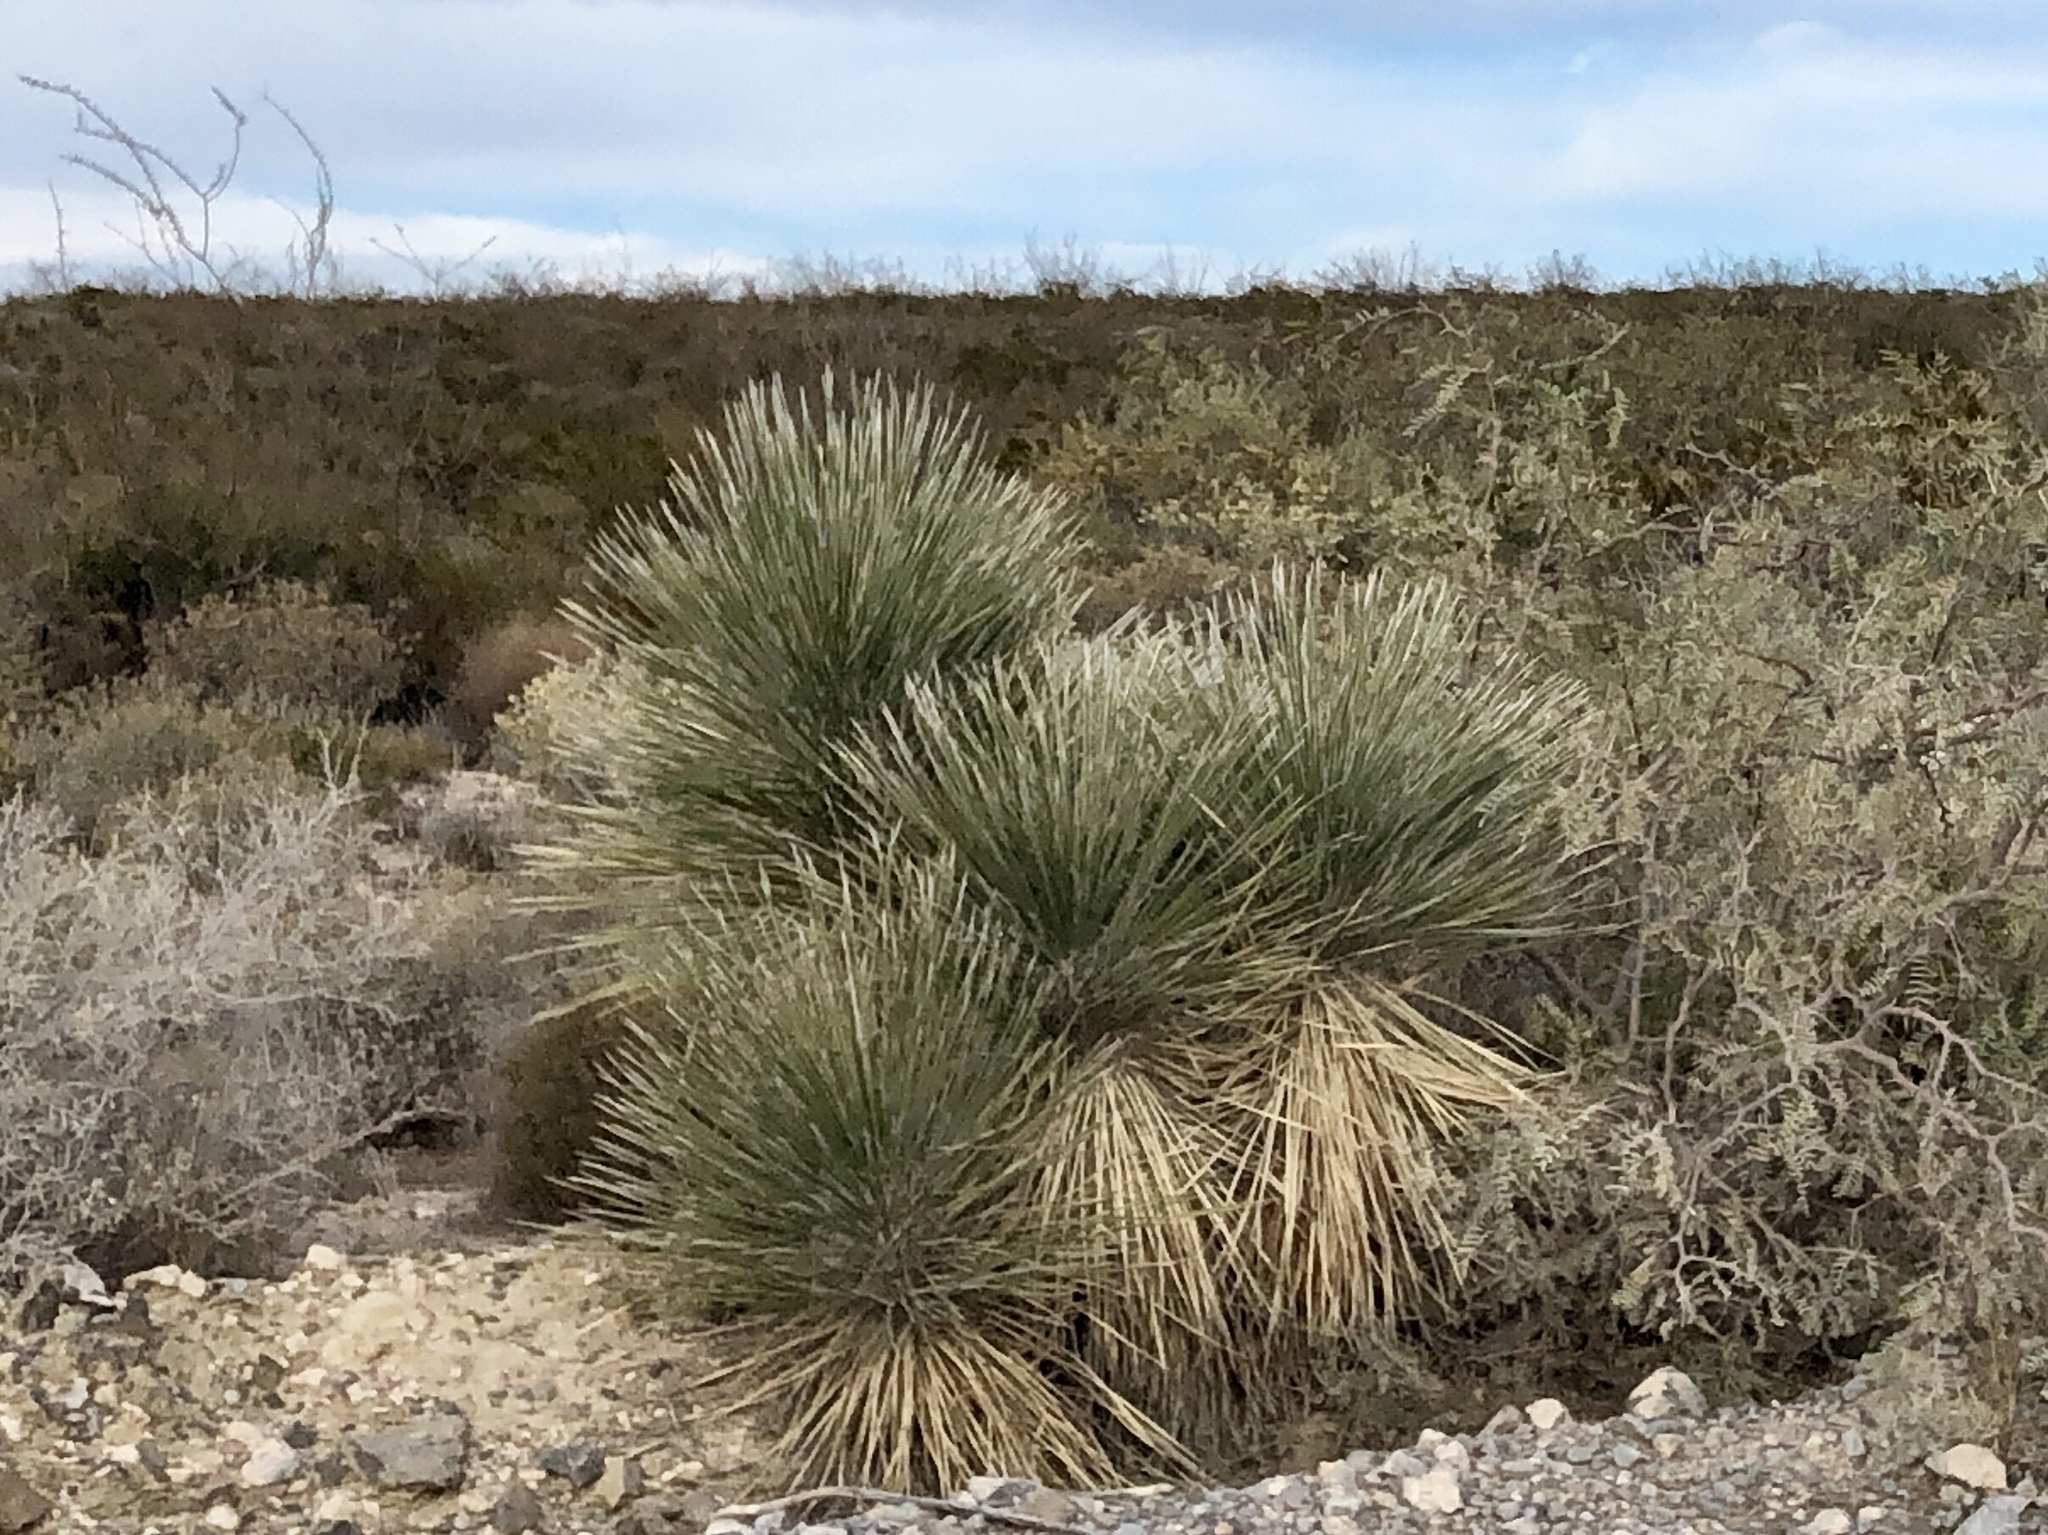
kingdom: Plantae
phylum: Tracheophyta
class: Liliopsida
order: Asparagales
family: Asparagaceae
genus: Yucca
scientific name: Yucca elata
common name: Palmella
